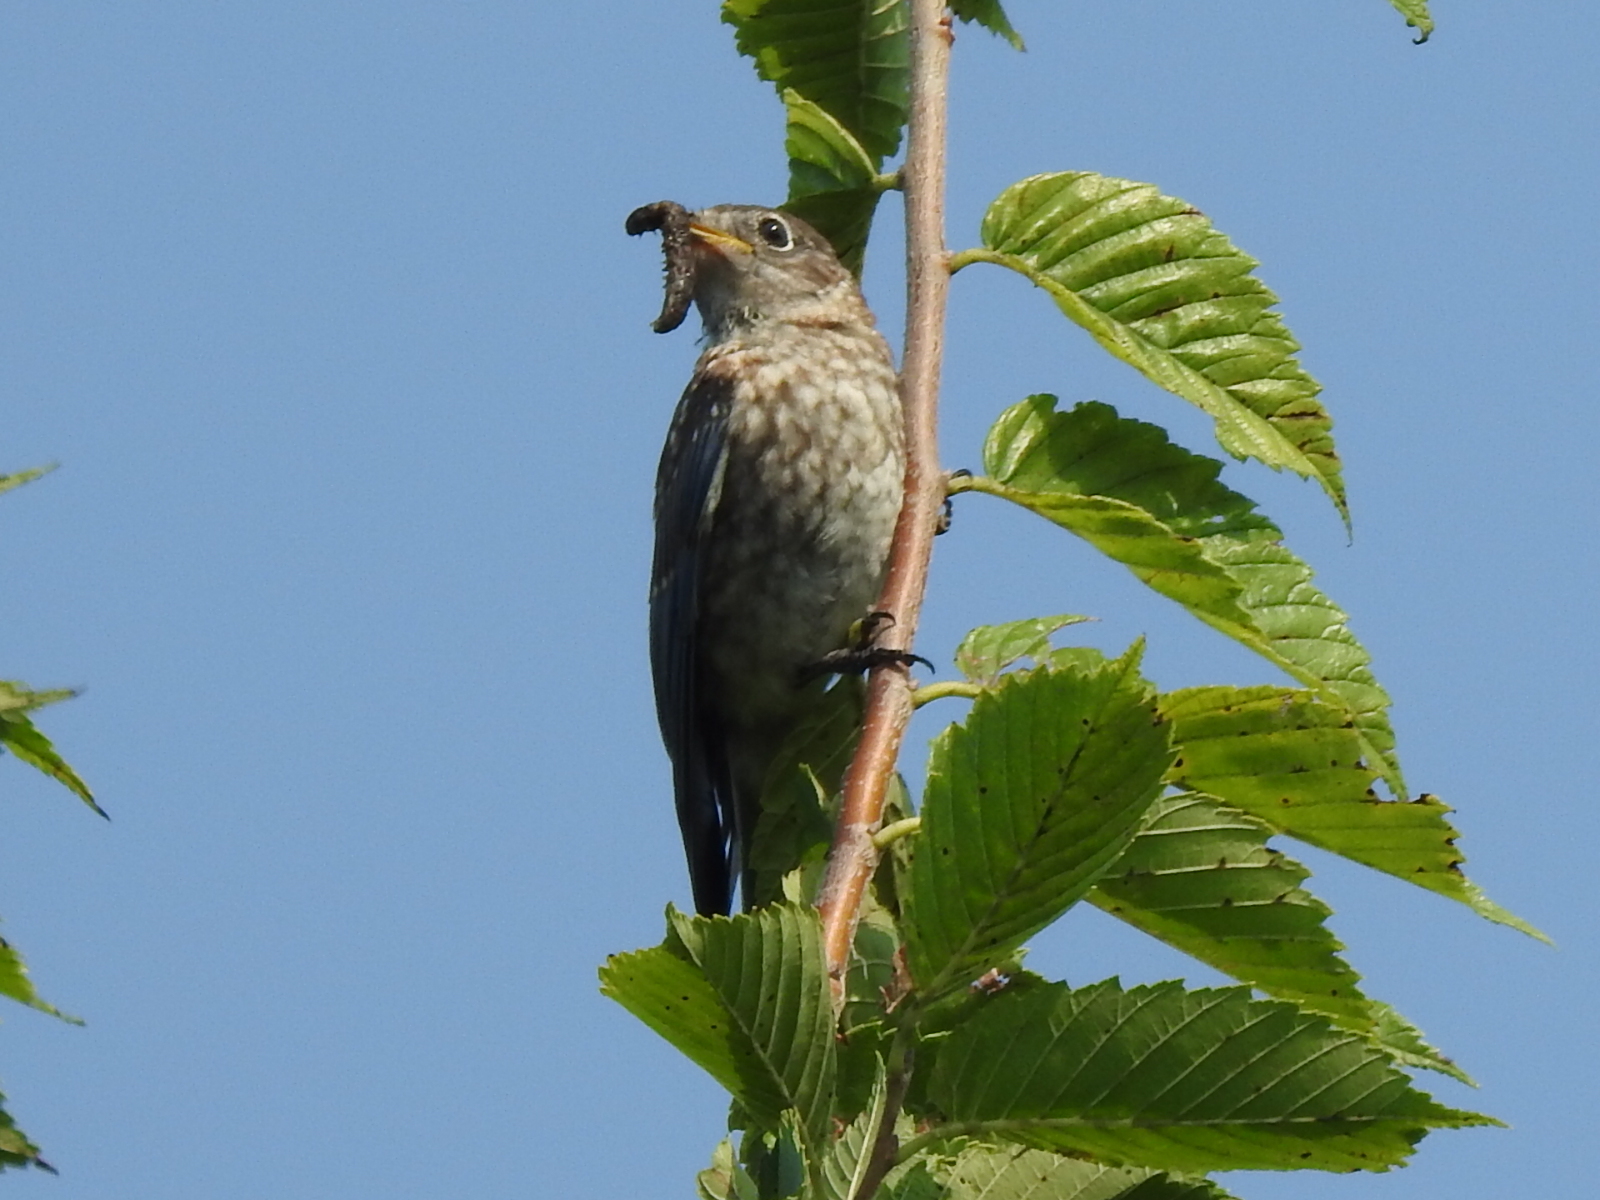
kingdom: Animalia
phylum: Chordata
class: Aves
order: Passeriformes
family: Turdidae
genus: Sialia
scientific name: Sialia sialis
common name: Eastern bluebird
